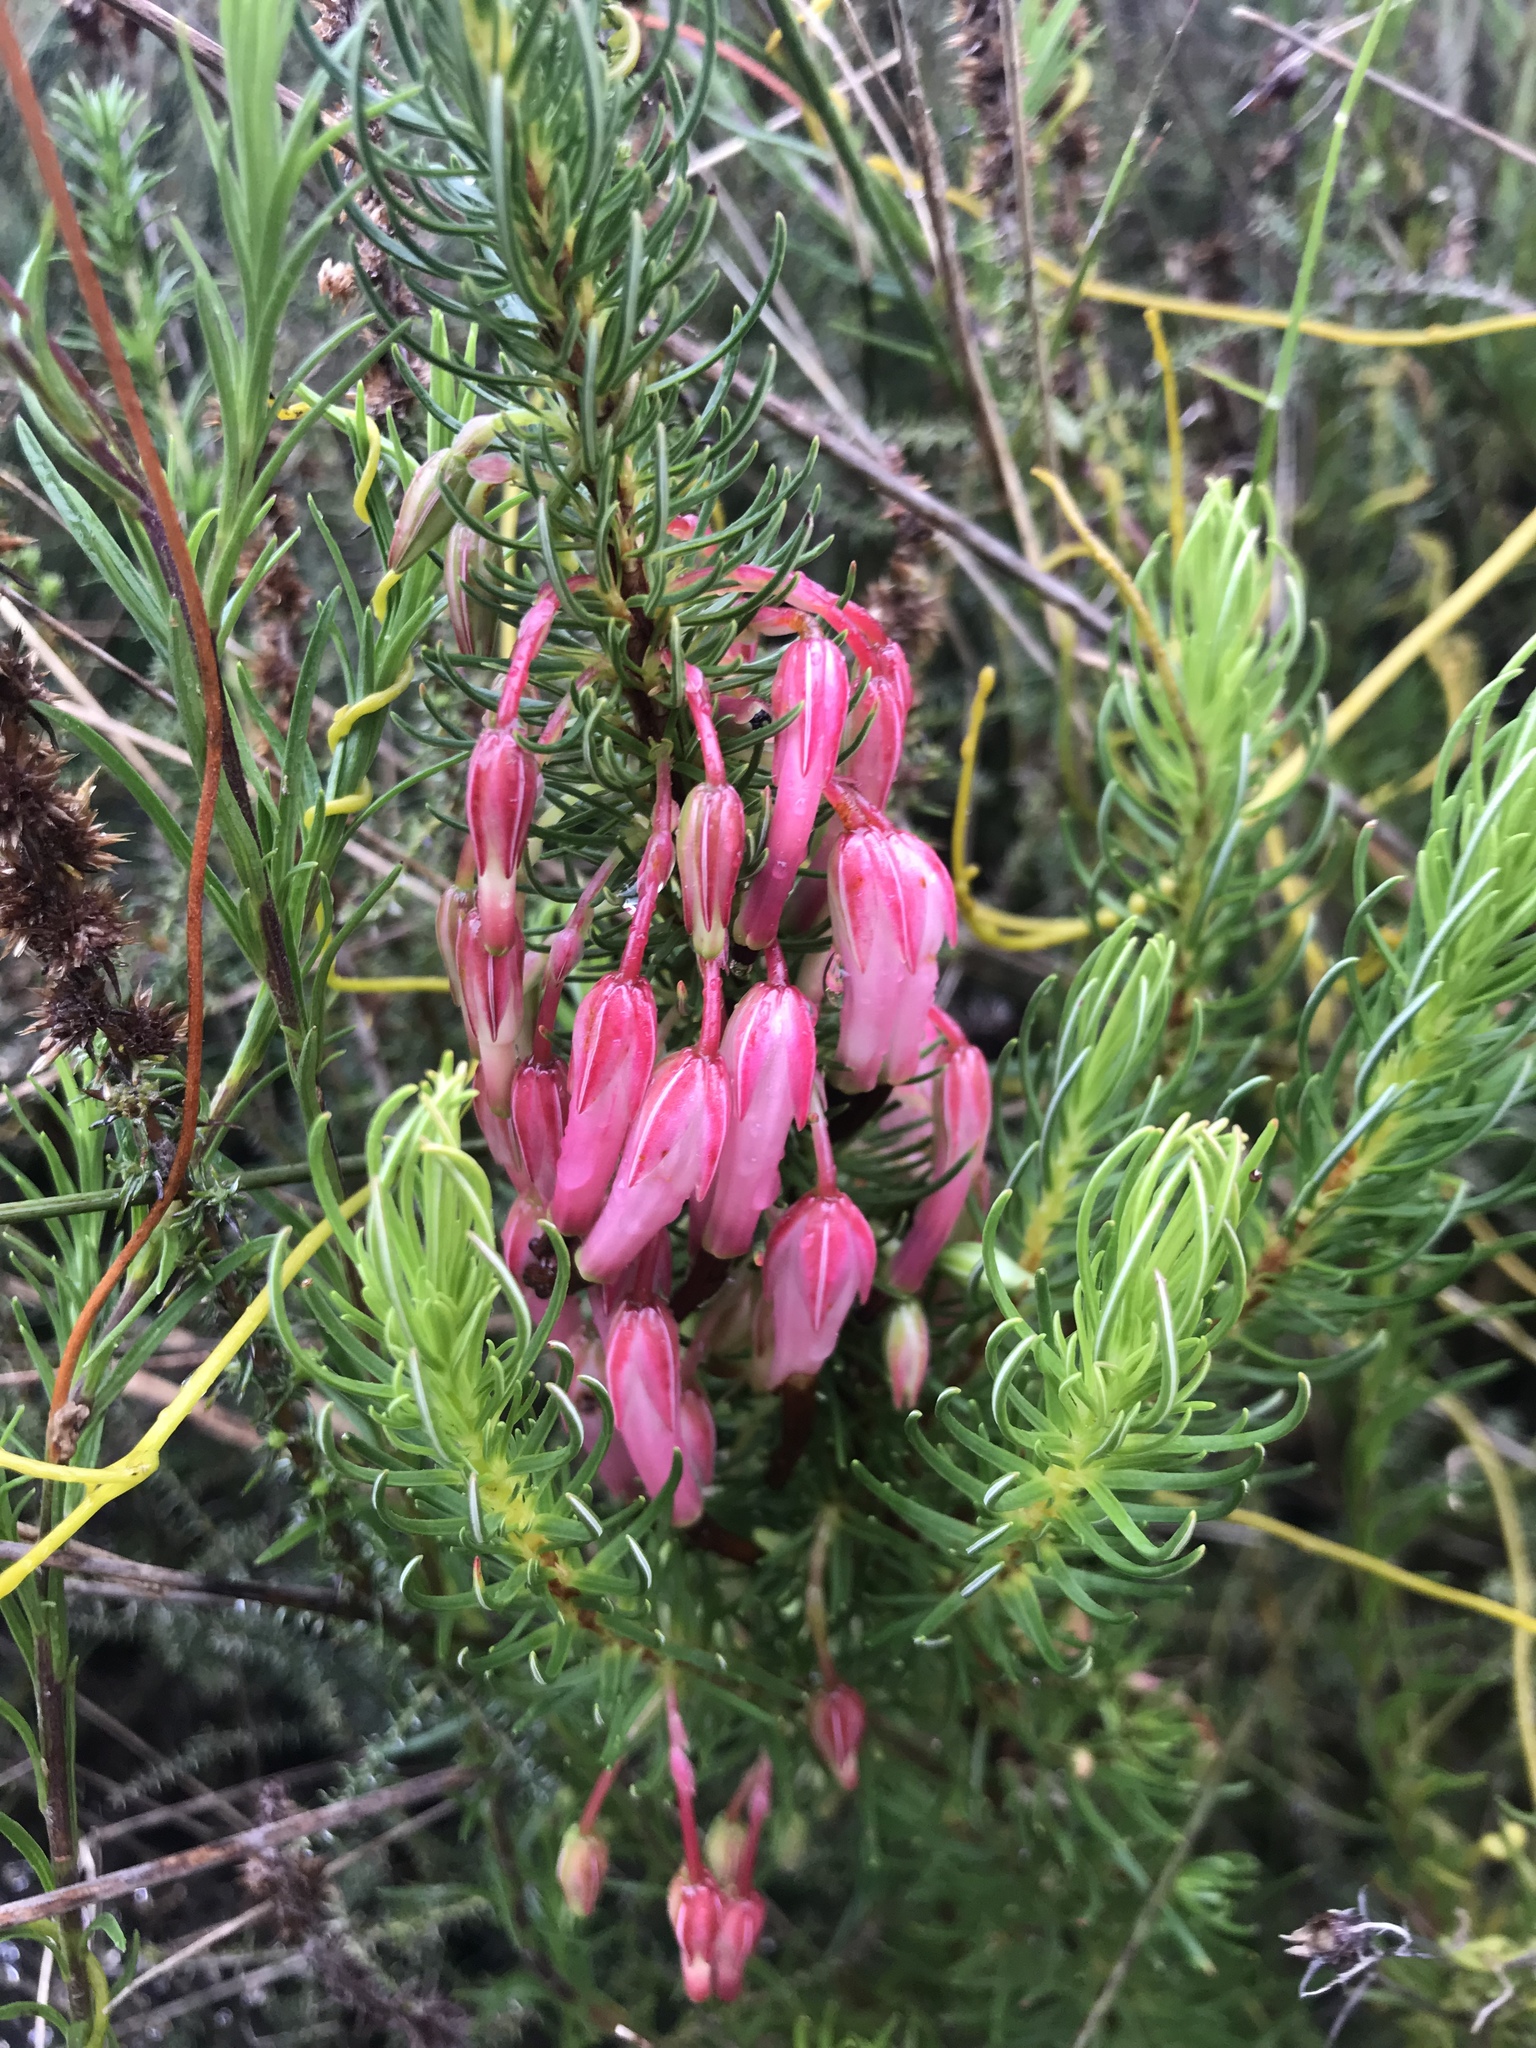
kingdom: Plantae
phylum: Tracheophyta
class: Magnoliopsida
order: Ericales
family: Ericaceae
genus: Erica
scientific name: Erica plukenetii
